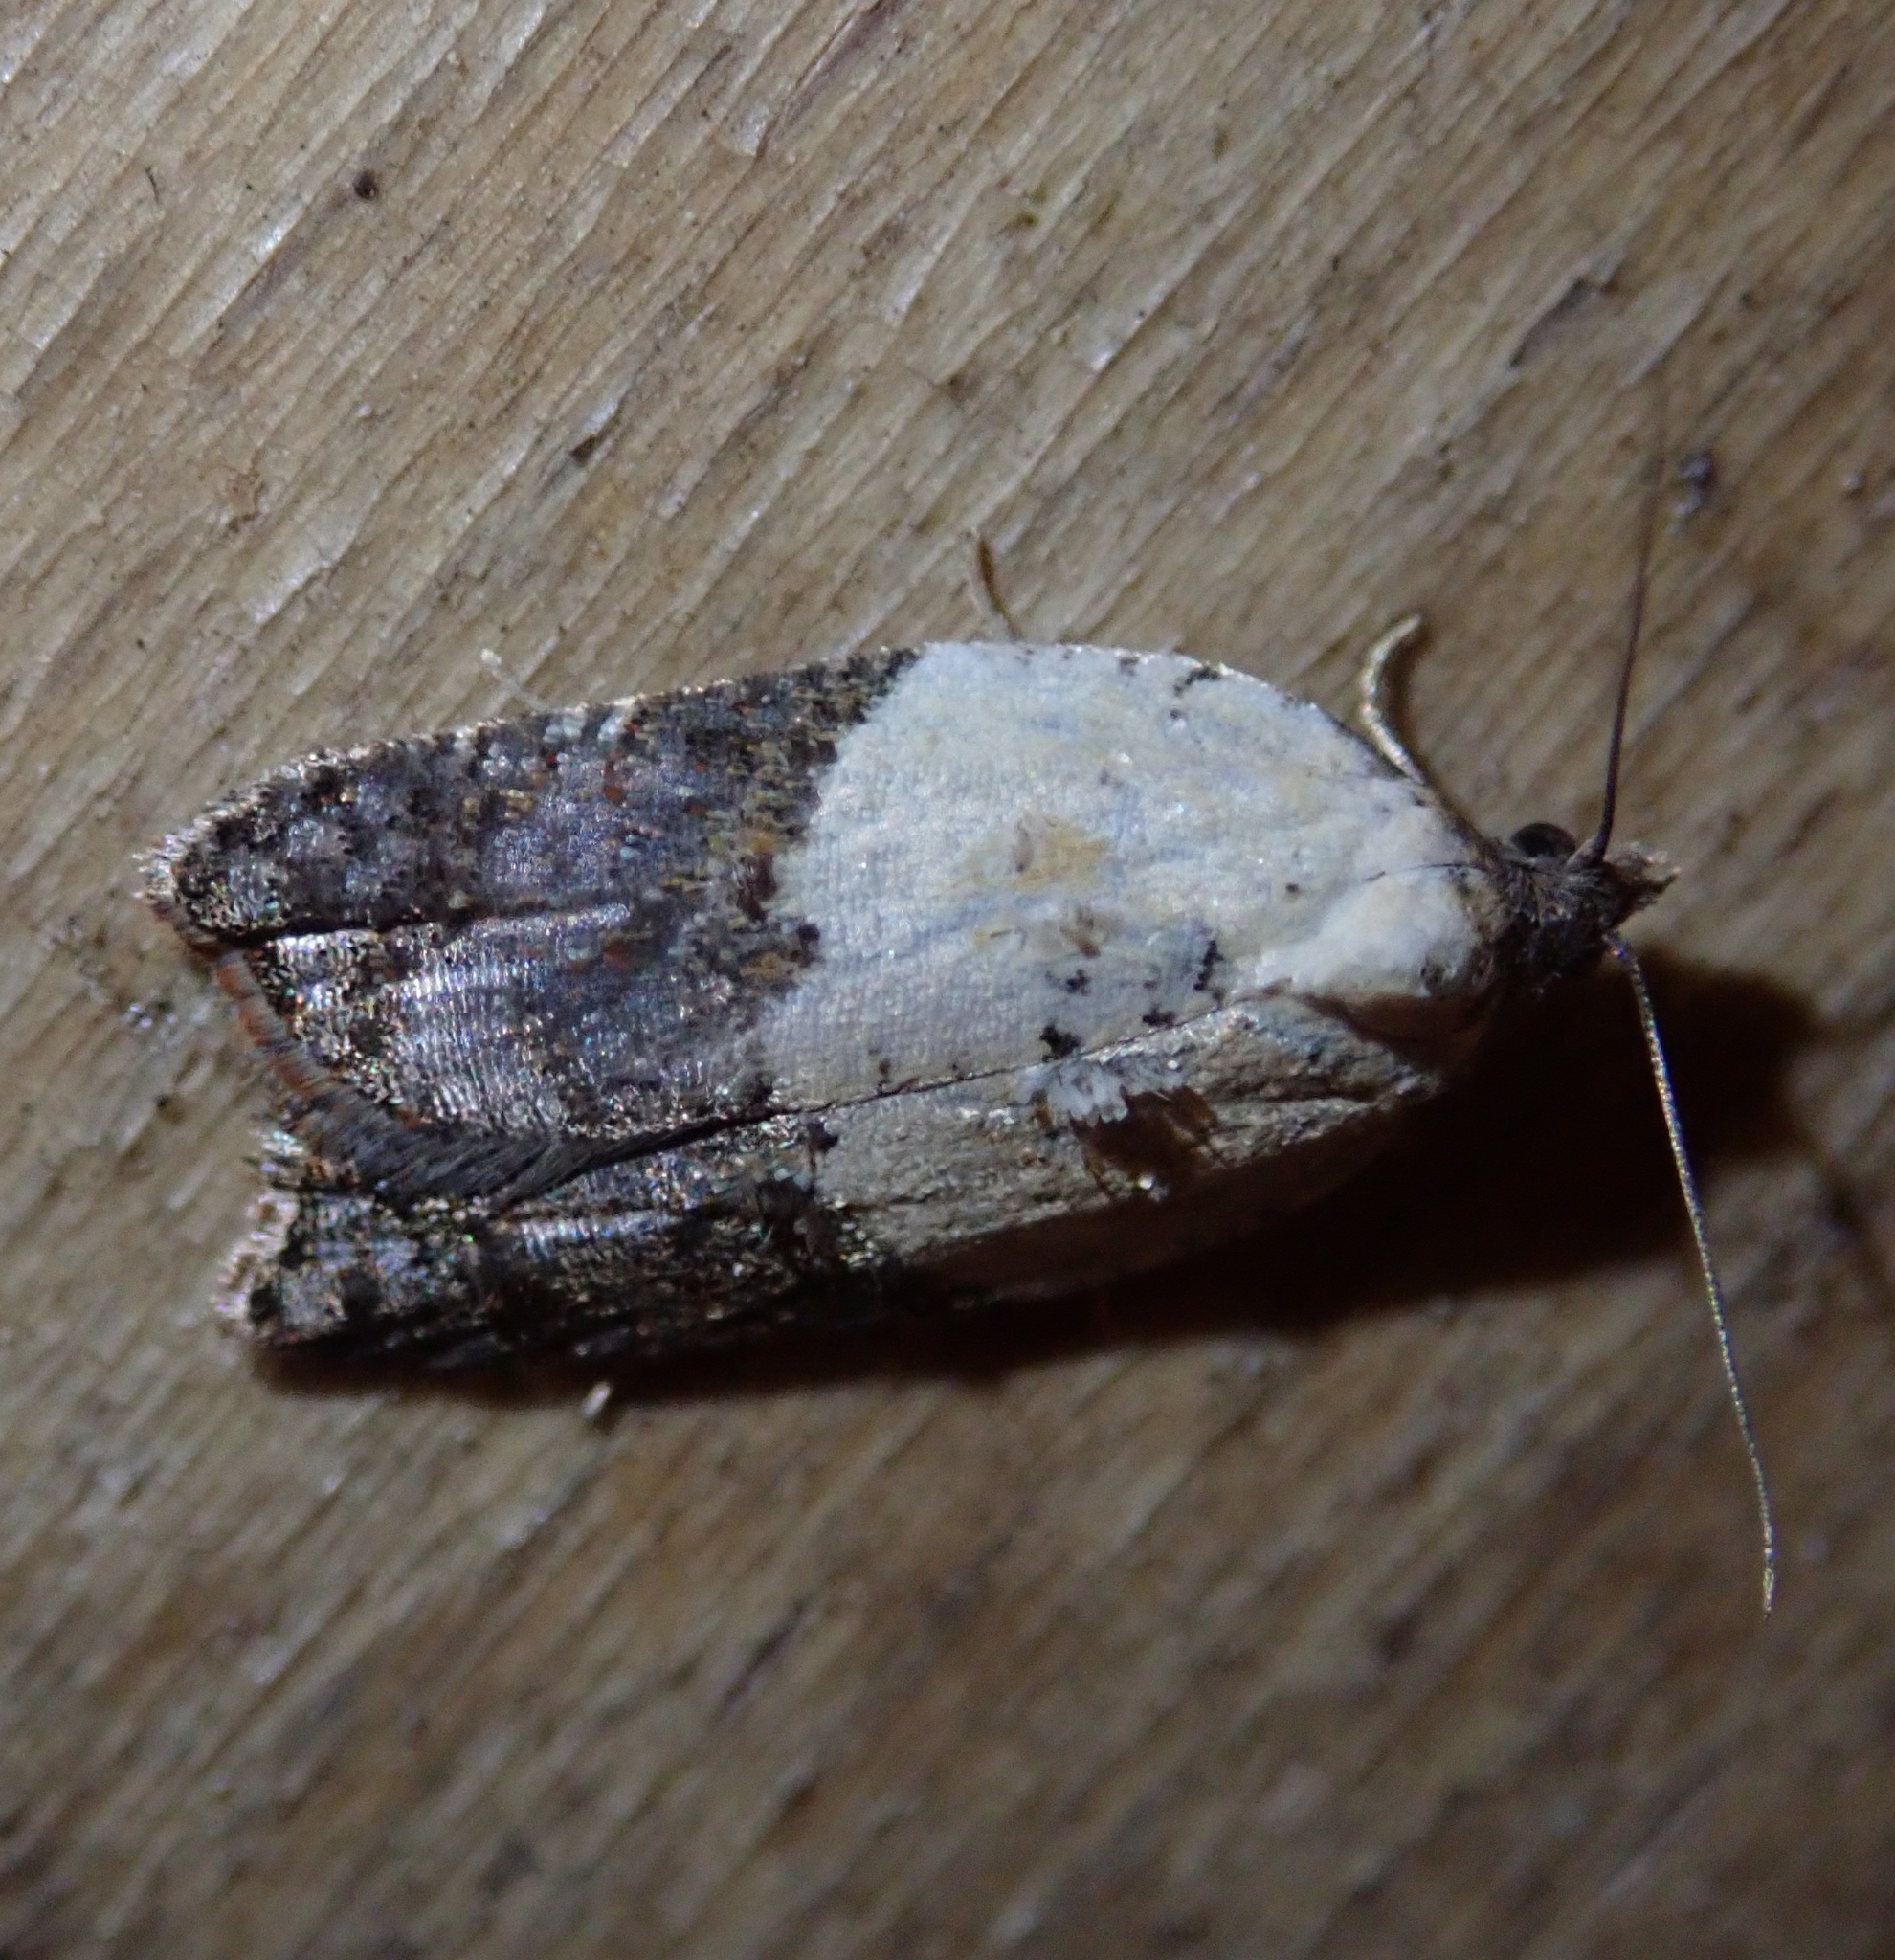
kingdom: Animalia
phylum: Arthropoda
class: Insecta
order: Lepidoptera
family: Tortricidae
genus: Acleris
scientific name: Acleris variegana
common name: Garden rose tortrix
